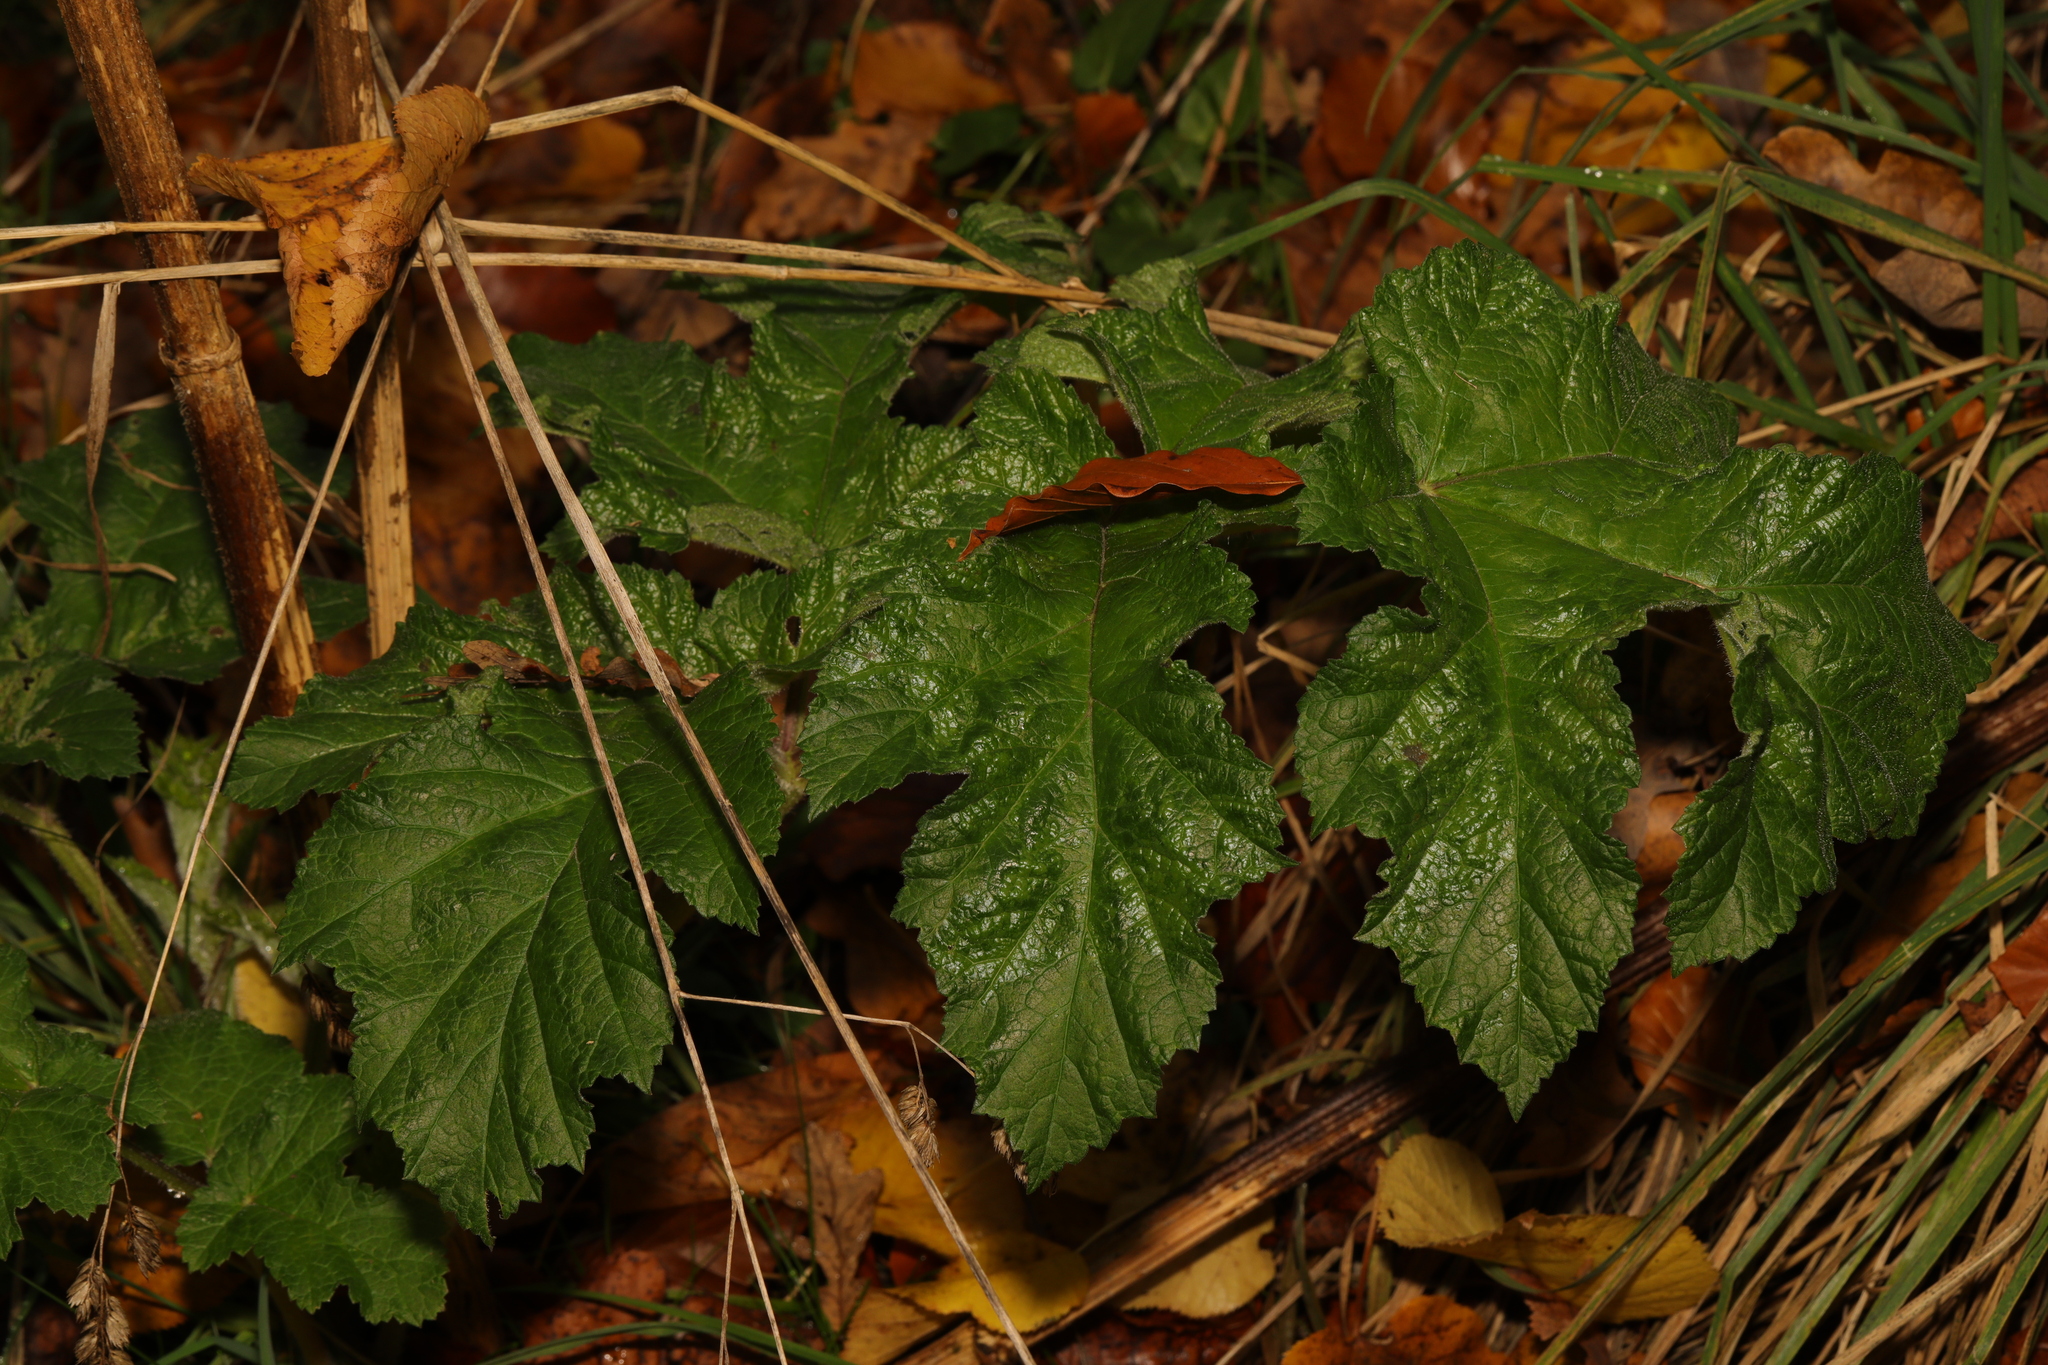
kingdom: Plantae
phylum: Tracheophyta
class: Magnoliopsida
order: Apiales
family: Apiaceae
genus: Heracleum
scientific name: Heracleum sphondylium
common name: Hogweed
